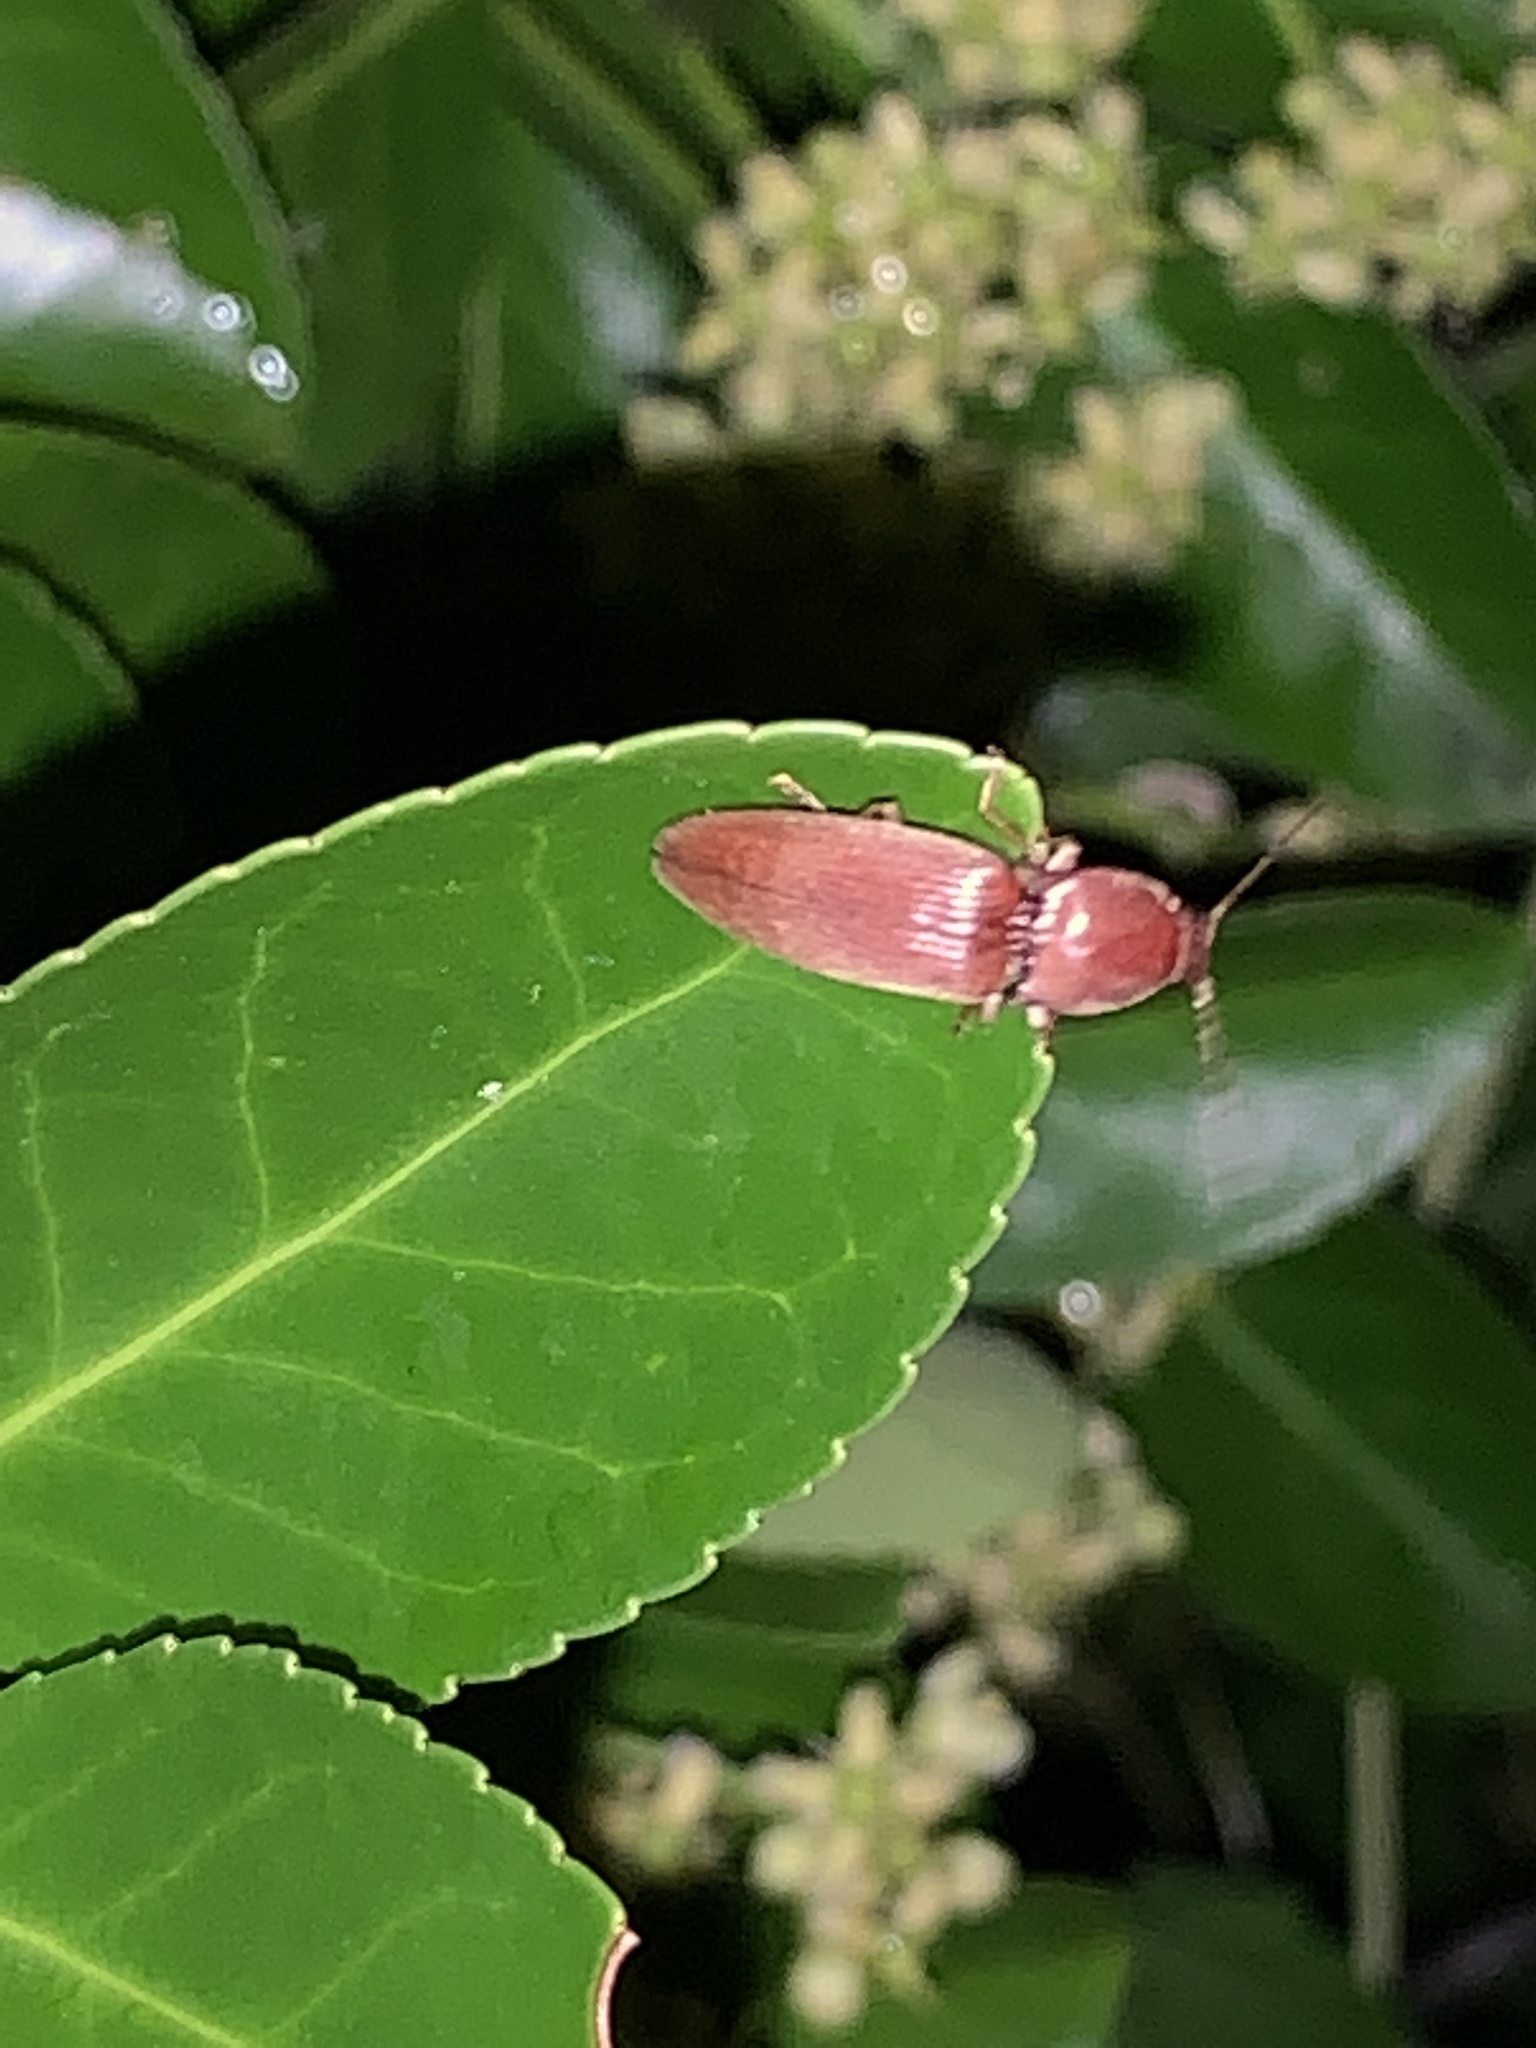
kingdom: Animalia
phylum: Arthropoda
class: Insecta
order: Coleoptera
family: Elateridae
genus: Monocrepidius
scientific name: Monocrepidius lividus
